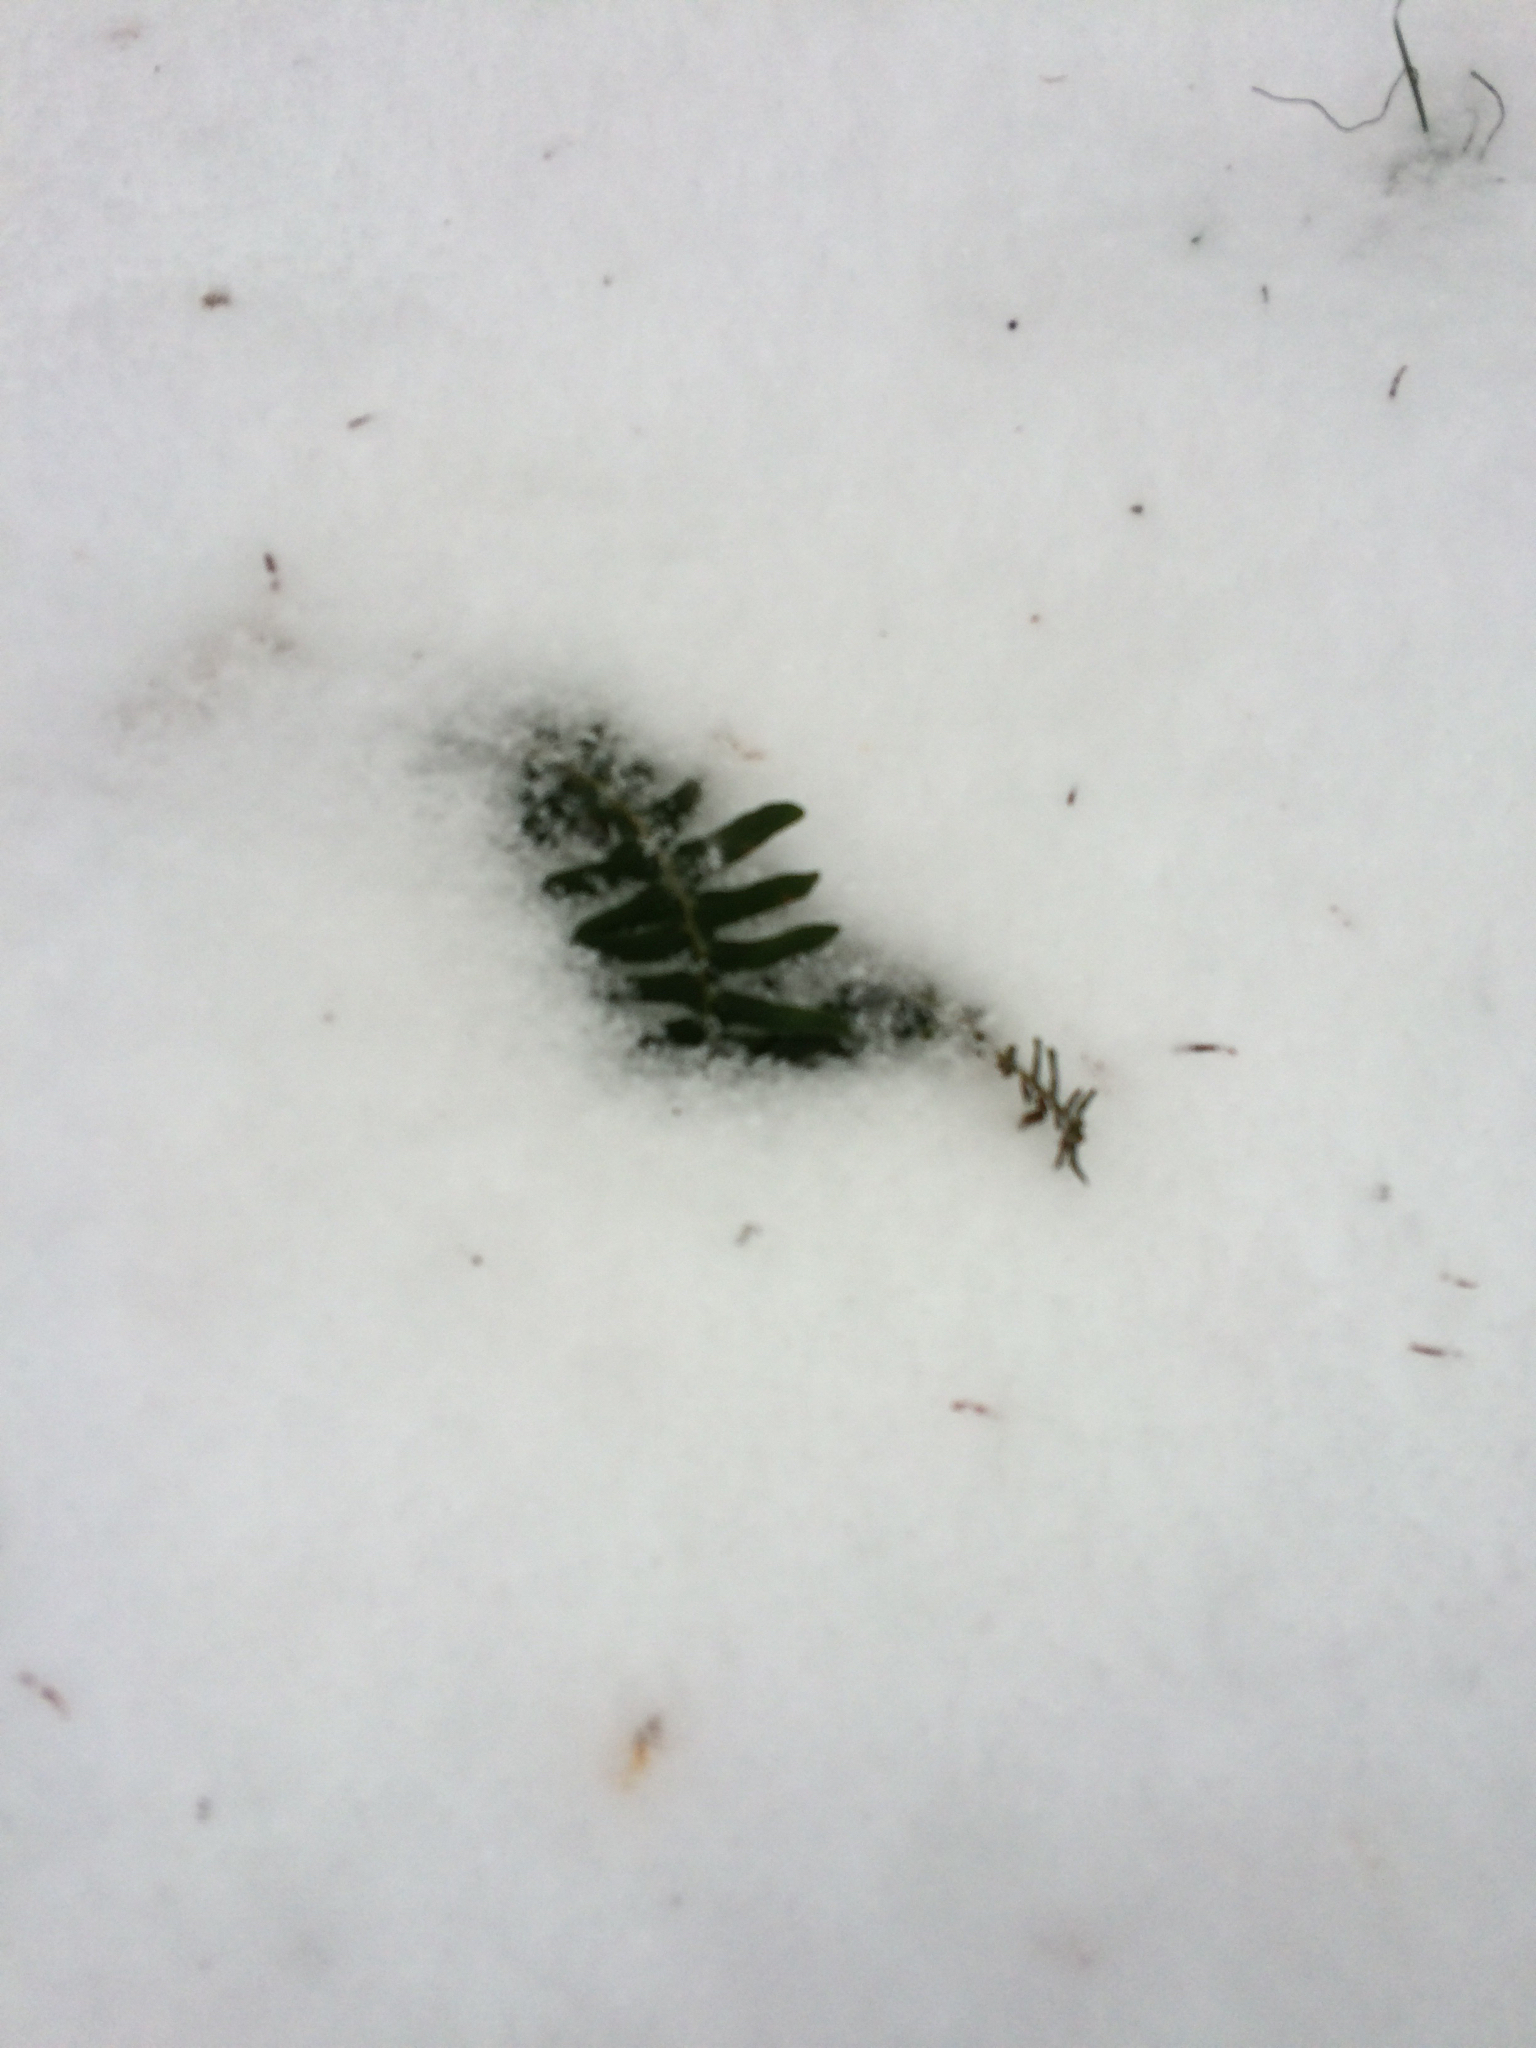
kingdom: Plantae
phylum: Tracheophyta
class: Polypodiopsida
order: Polypodiales
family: Dryopteridaceae
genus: Polystichum
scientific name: Polystichum acrostichoides
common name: Christmas fern
